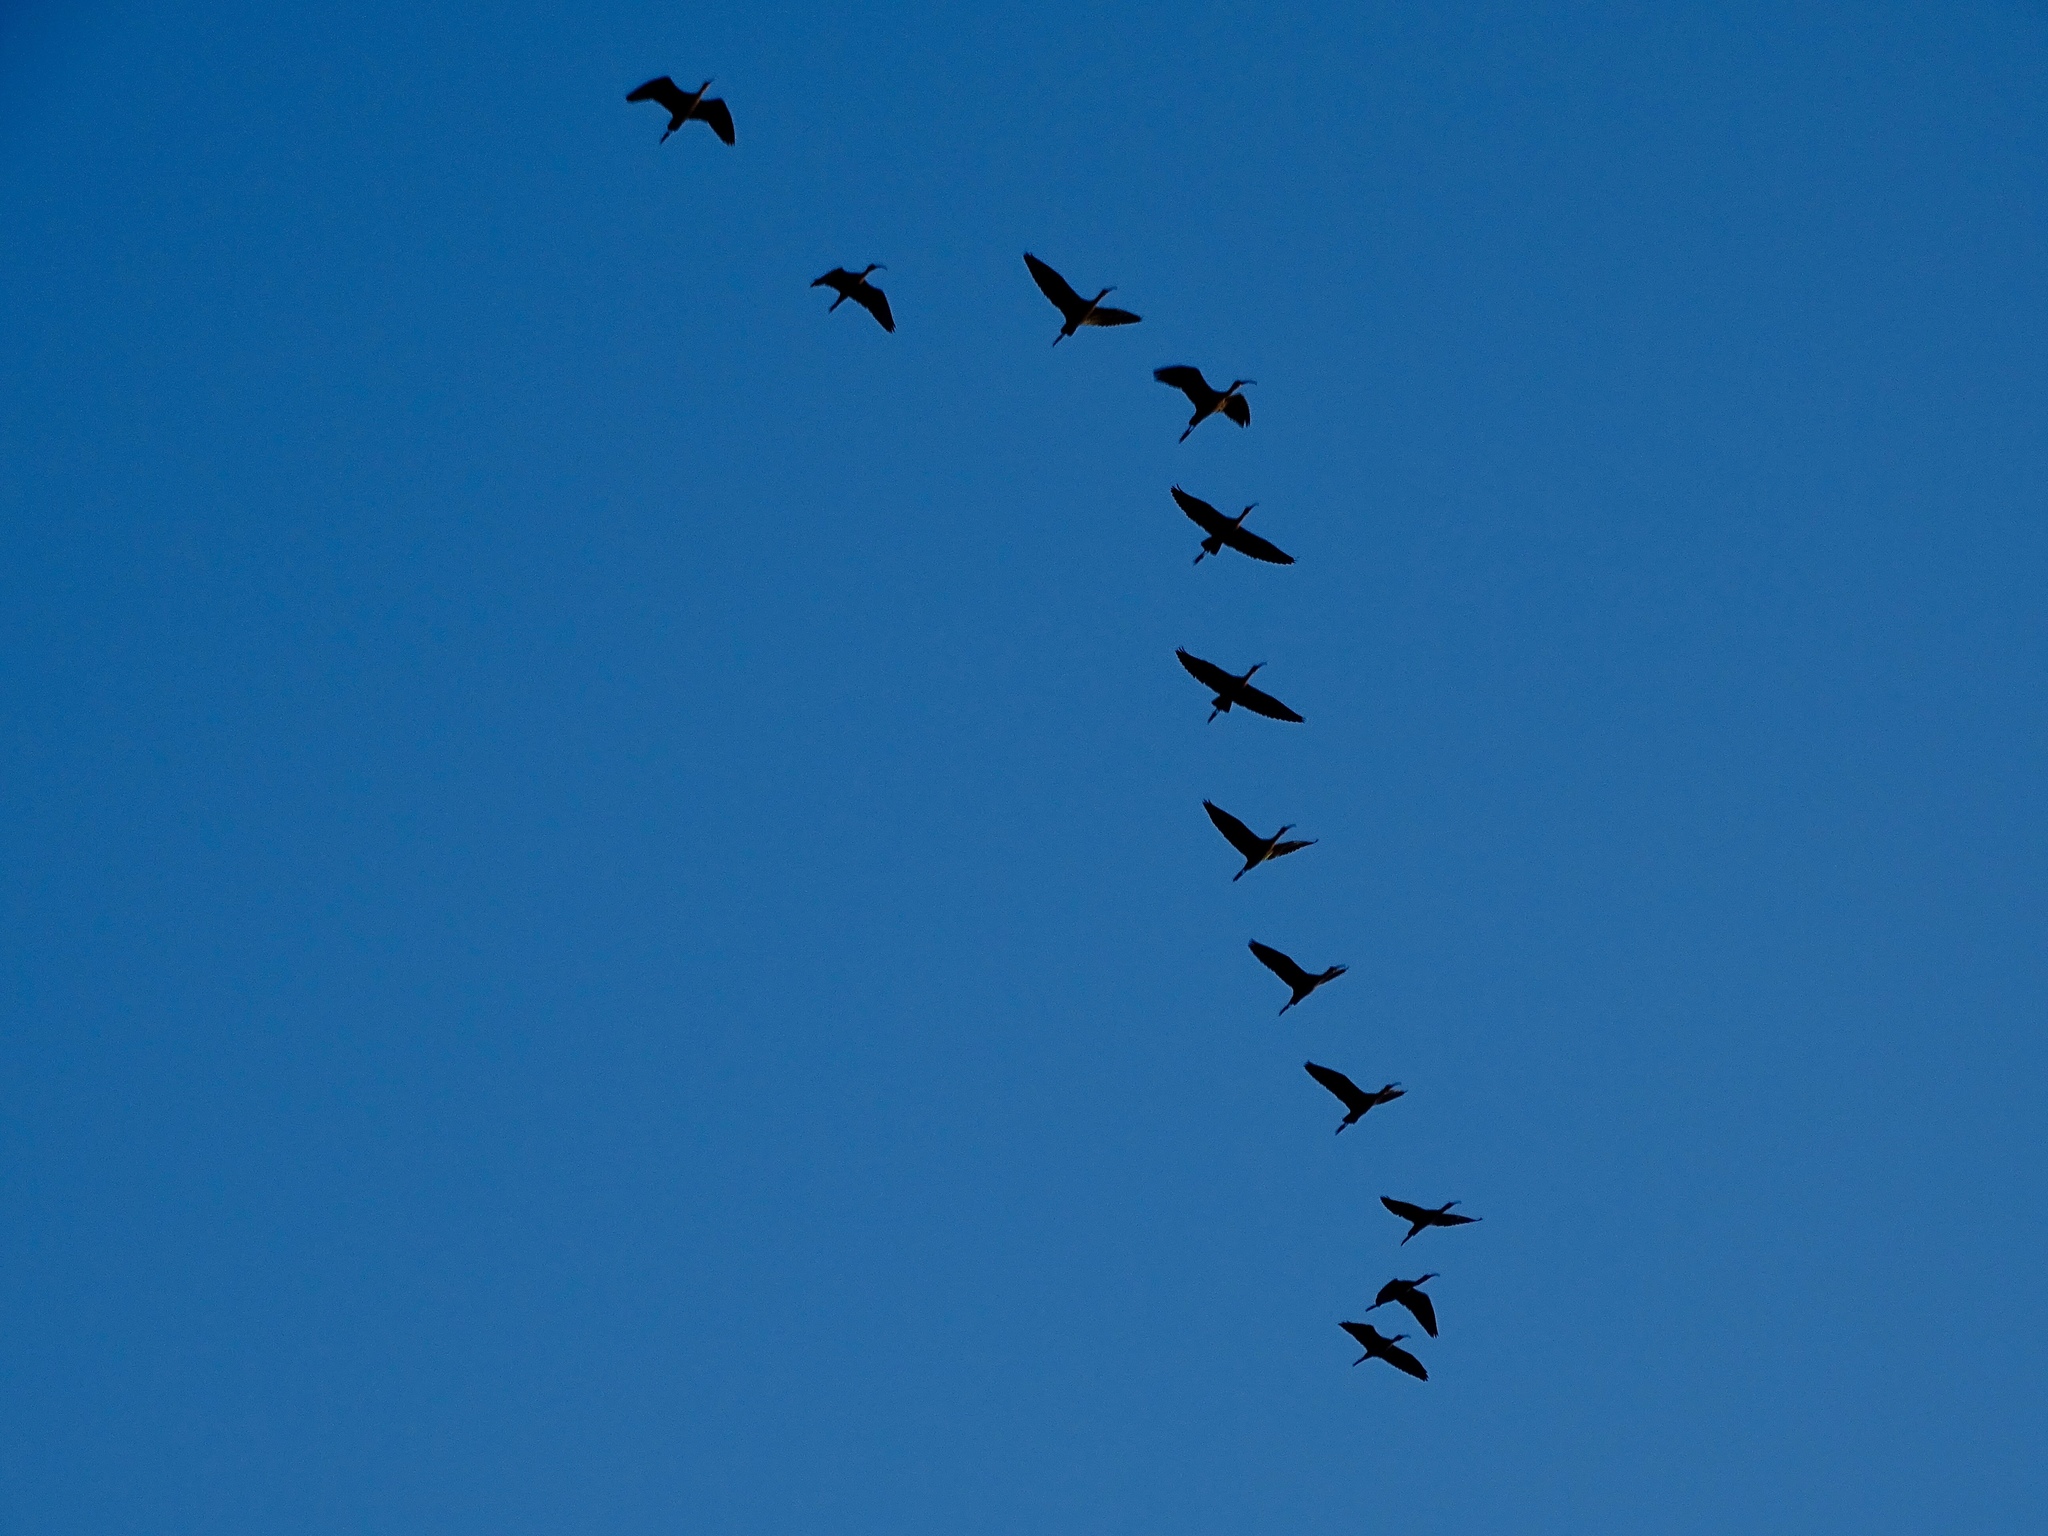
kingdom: Animalia
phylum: Chordata
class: Aves
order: Pelecaniformes
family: Threskiornithidae
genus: Plegadis
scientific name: Plegadis chihi
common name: White-faced ibis
